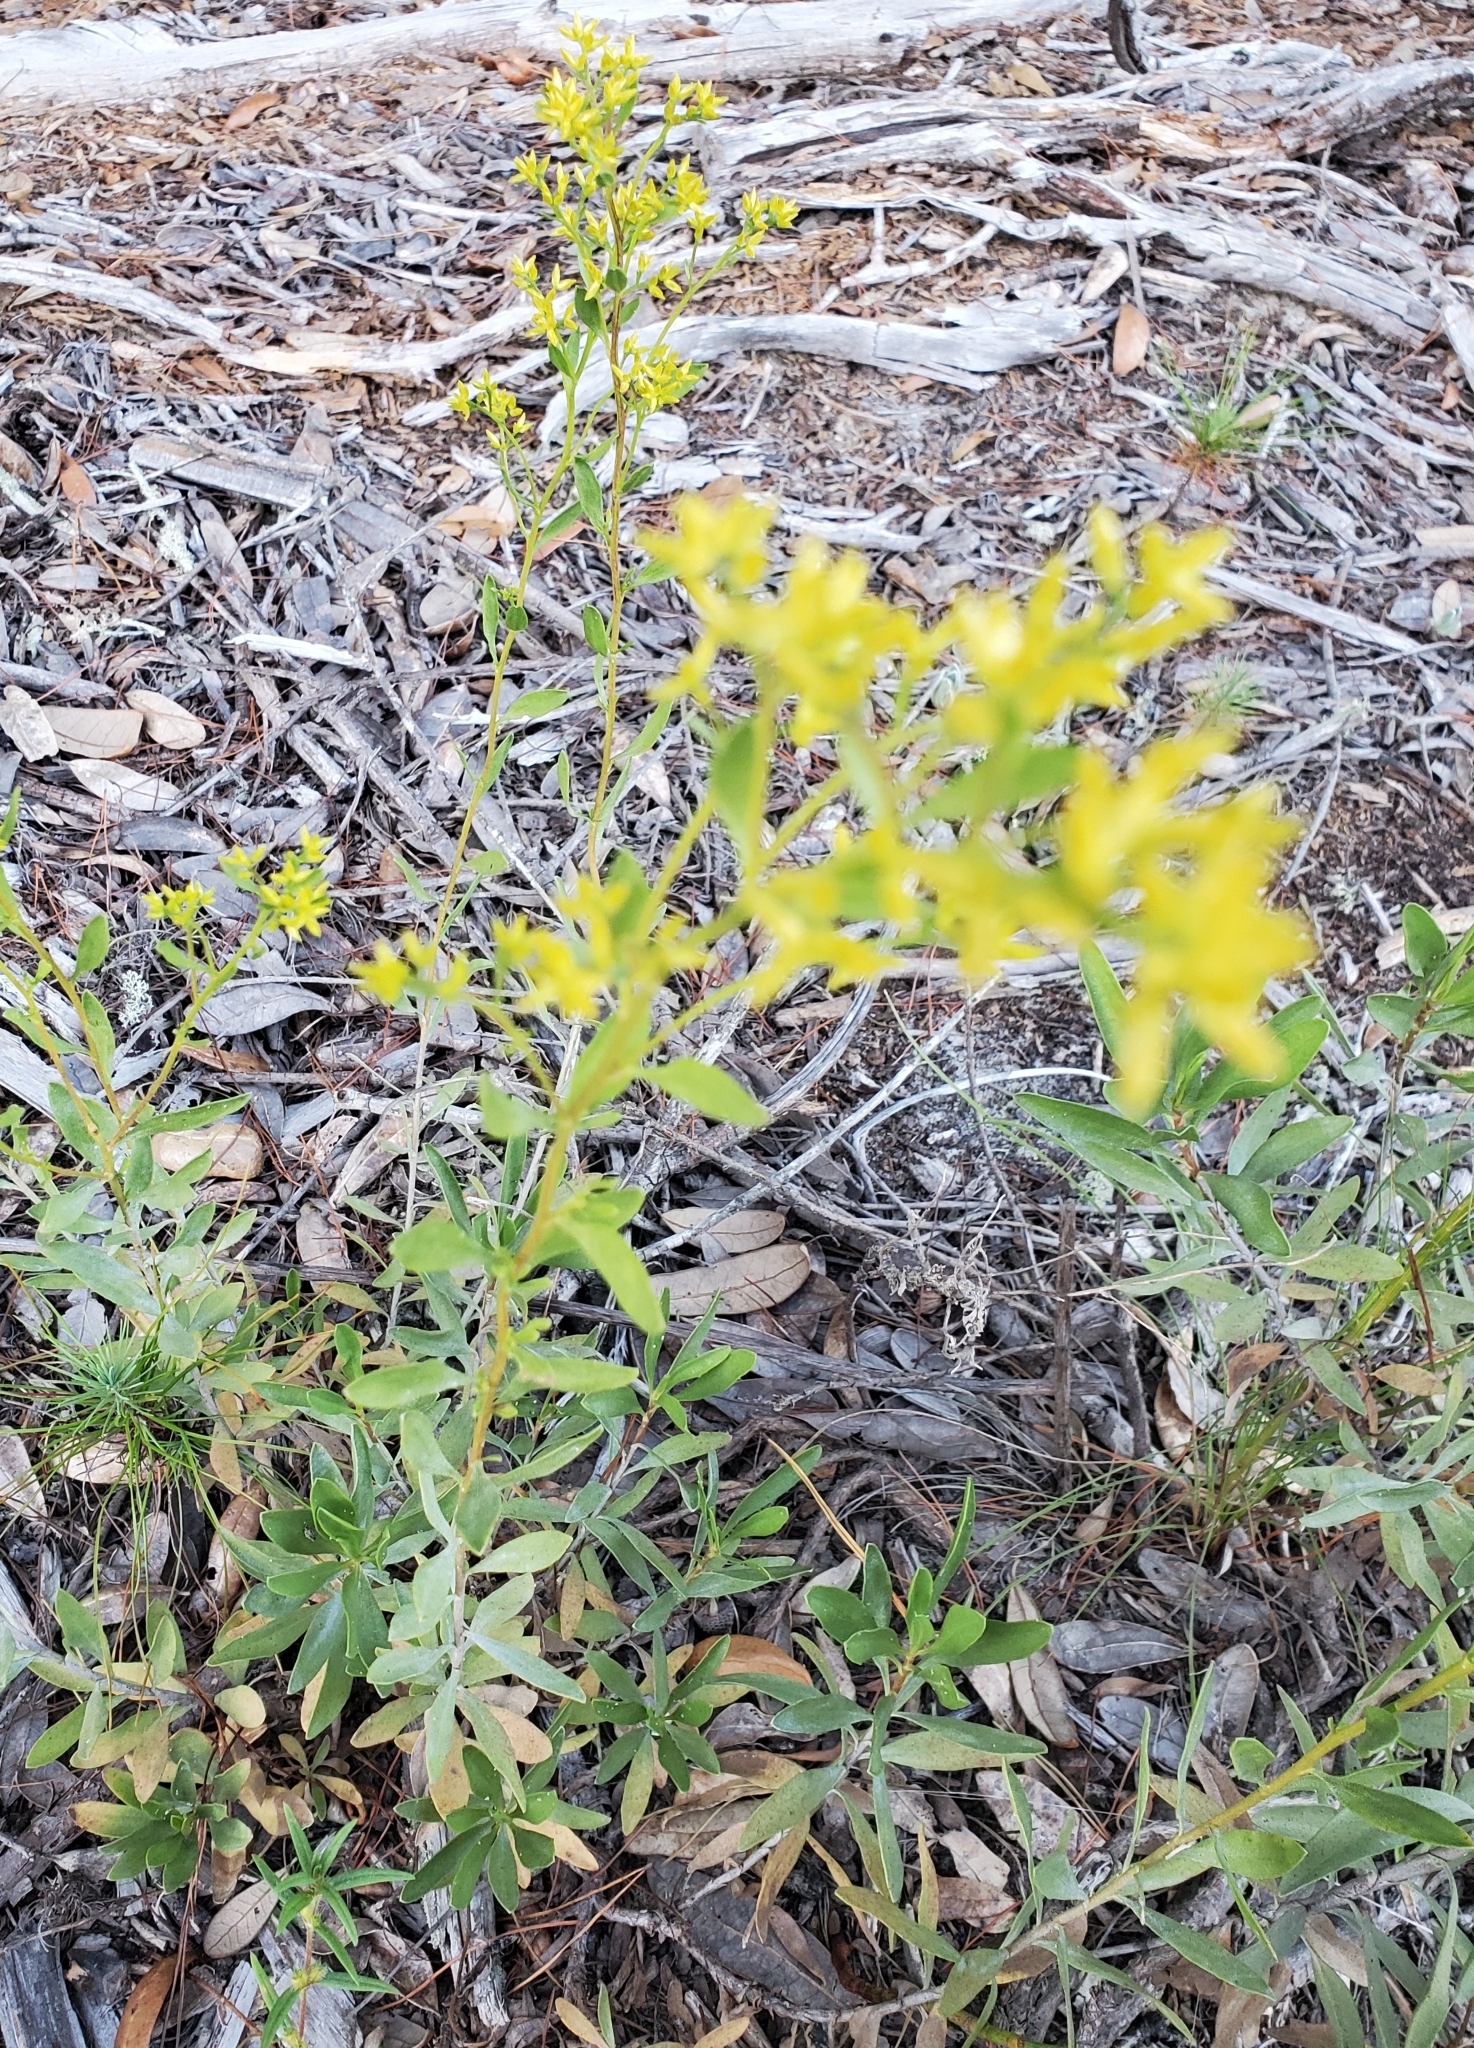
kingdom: Plantae
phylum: Tracheophyta
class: Magnoliopsida
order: Asterales
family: Asteraceae
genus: Chrysoma
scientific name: Chrysoma pauciflosculosa
